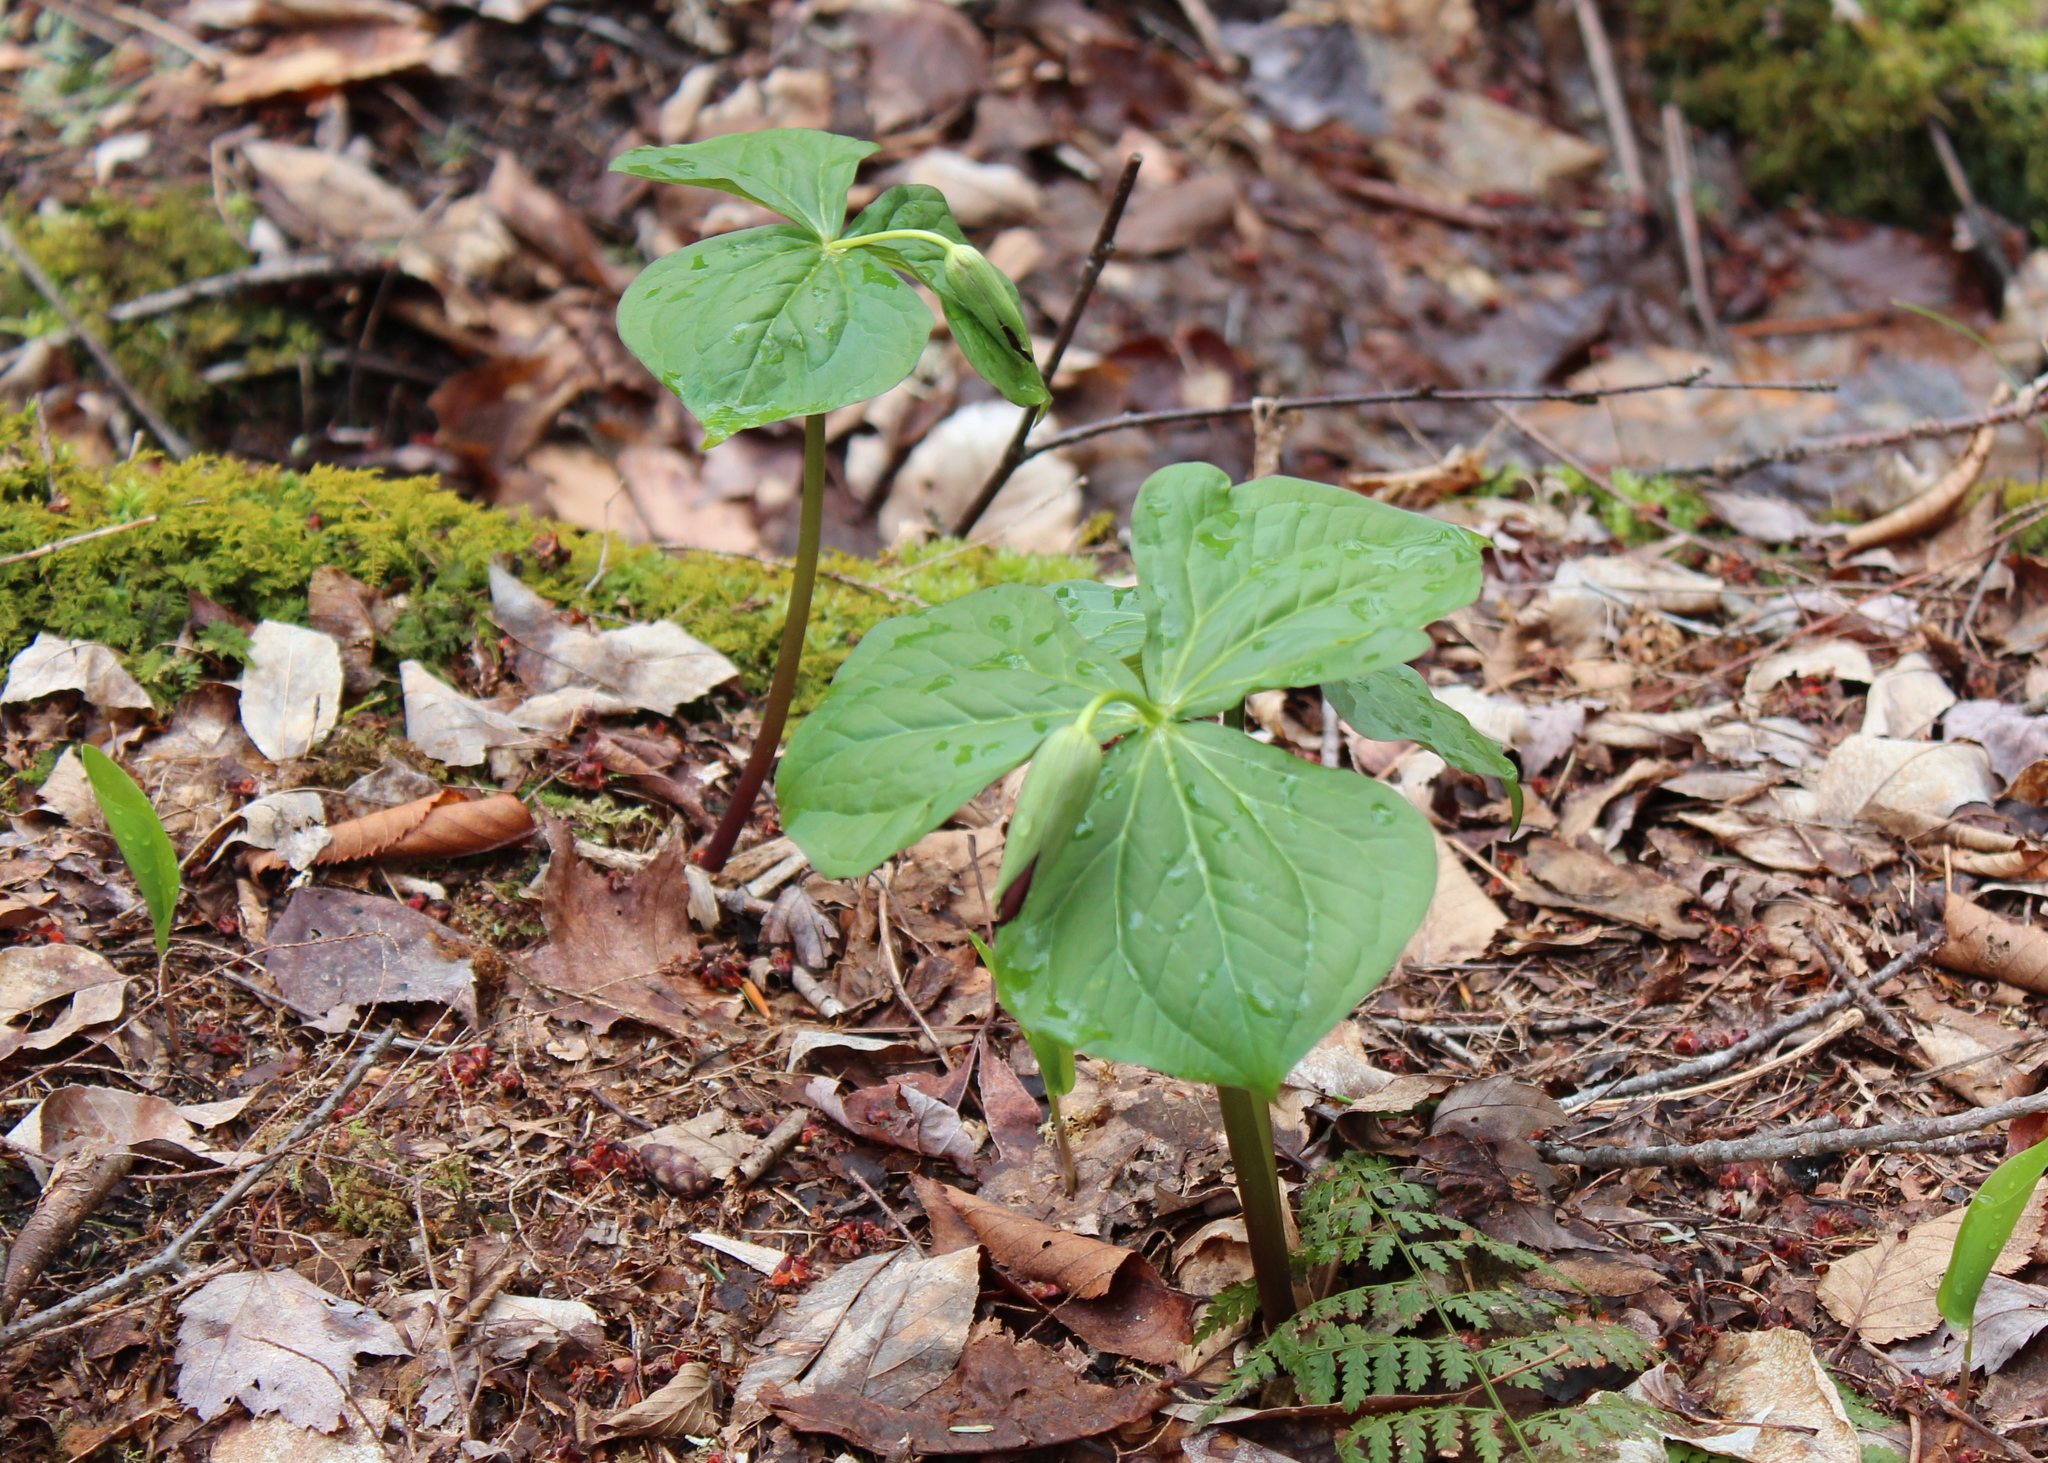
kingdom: Plantae
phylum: Tracheophyta
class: Liliopsida
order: Liliales
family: Melanthiaceae
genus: Trillium
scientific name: Trillium erectum
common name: Purple trillium
